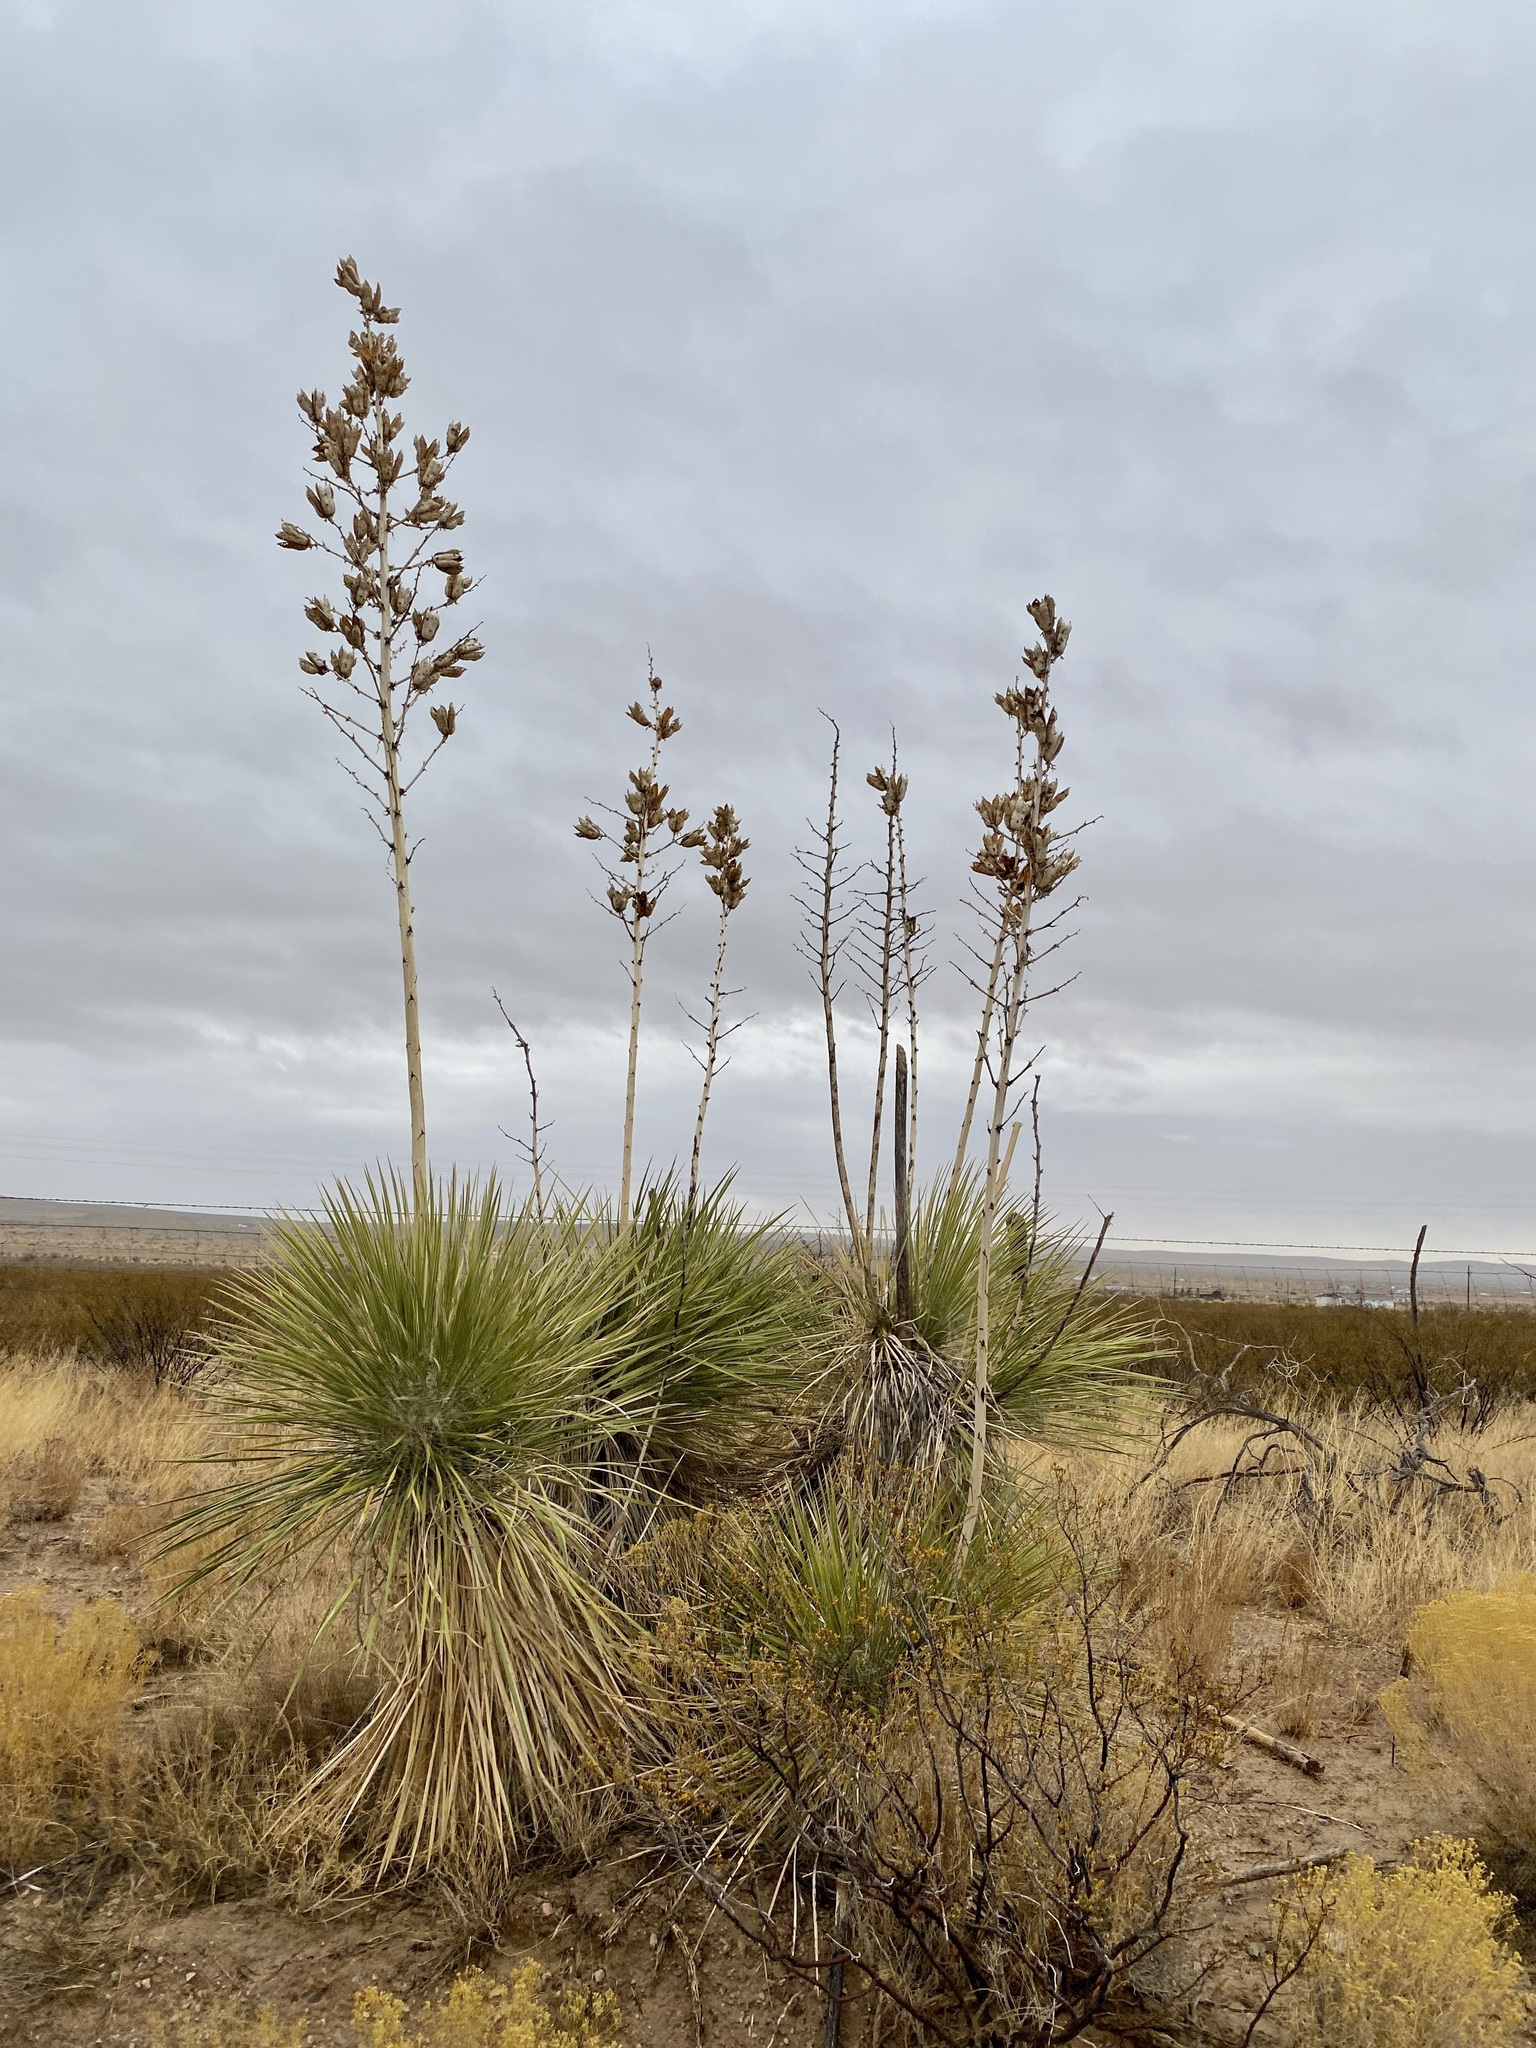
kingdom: Plantae
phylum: Tracheophyta
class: Liliopsida
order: Asparagales
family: Asparagaceae
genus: Yucca
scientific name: Yucca elata
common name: Palmella
